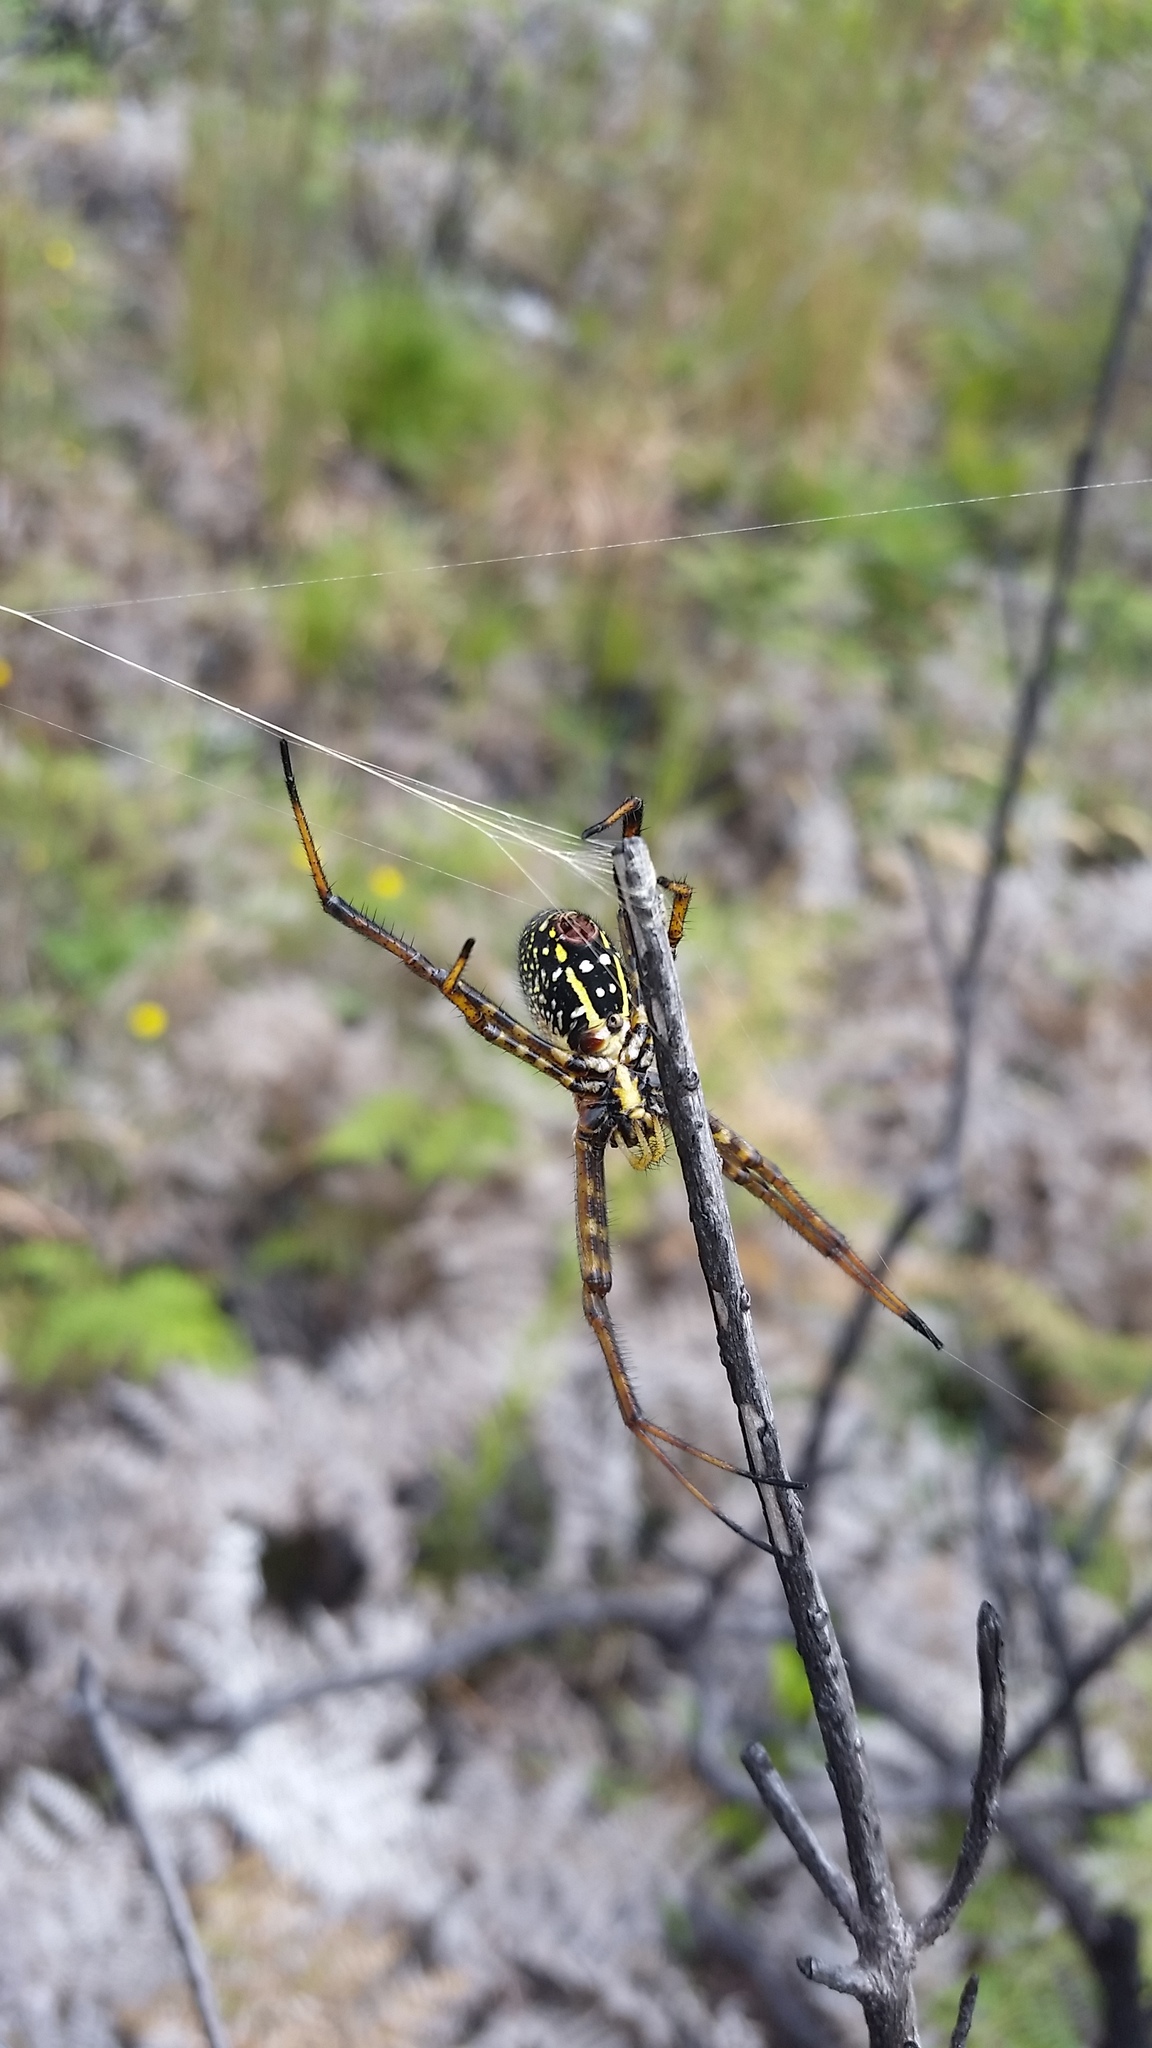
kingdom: Animalia
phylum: Arthropoda
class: Arachnida
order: Araneae
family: Araneidae
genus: Argiope
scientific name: Argiope trifasciata
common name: Banded garden spider
